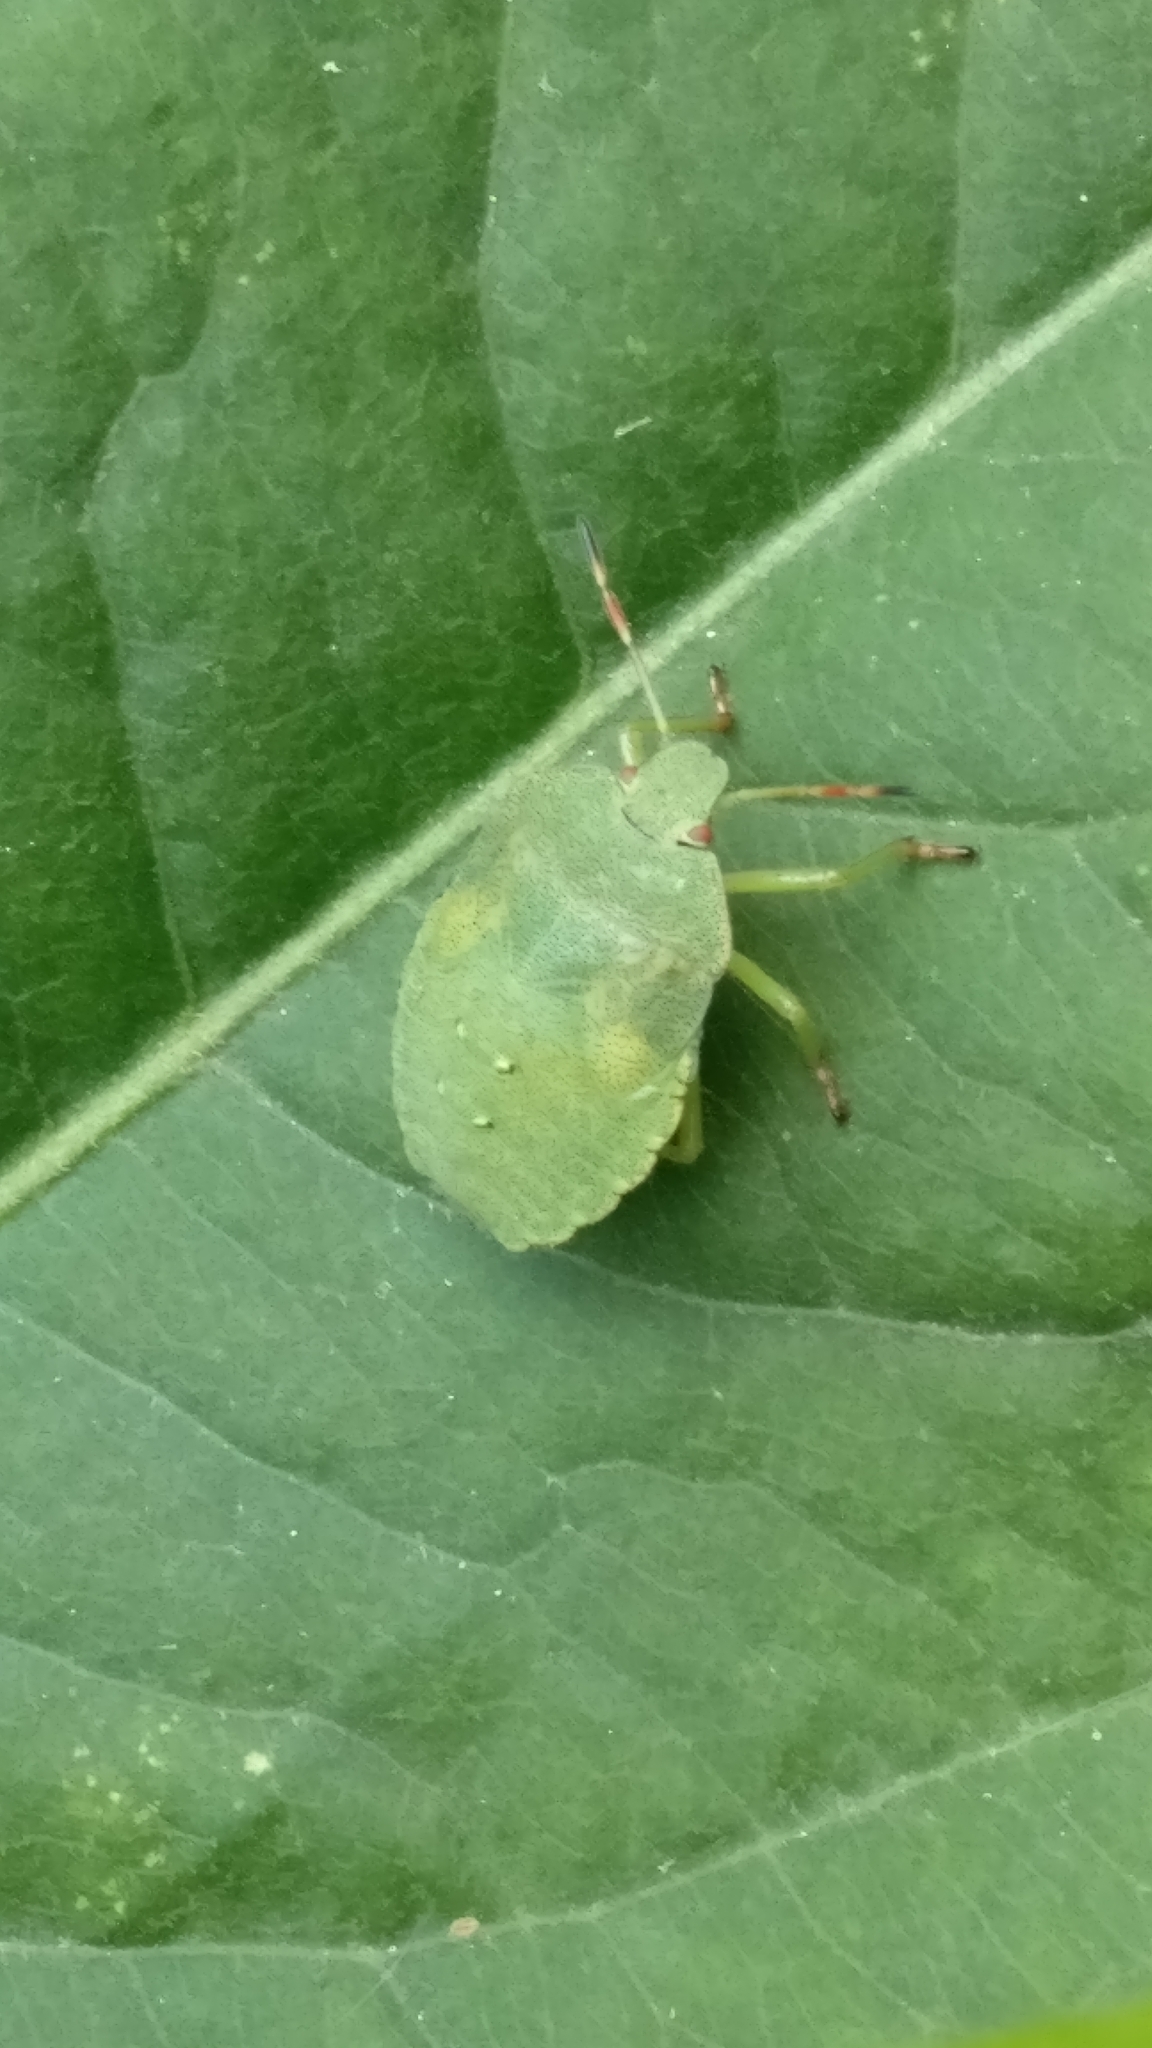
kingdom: Animalia
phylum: Arthropoda
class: Insecta
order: Hemiptera
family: Pentatomidae
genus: Palomena
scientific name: Palomena prasina
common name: Green shieldbug
